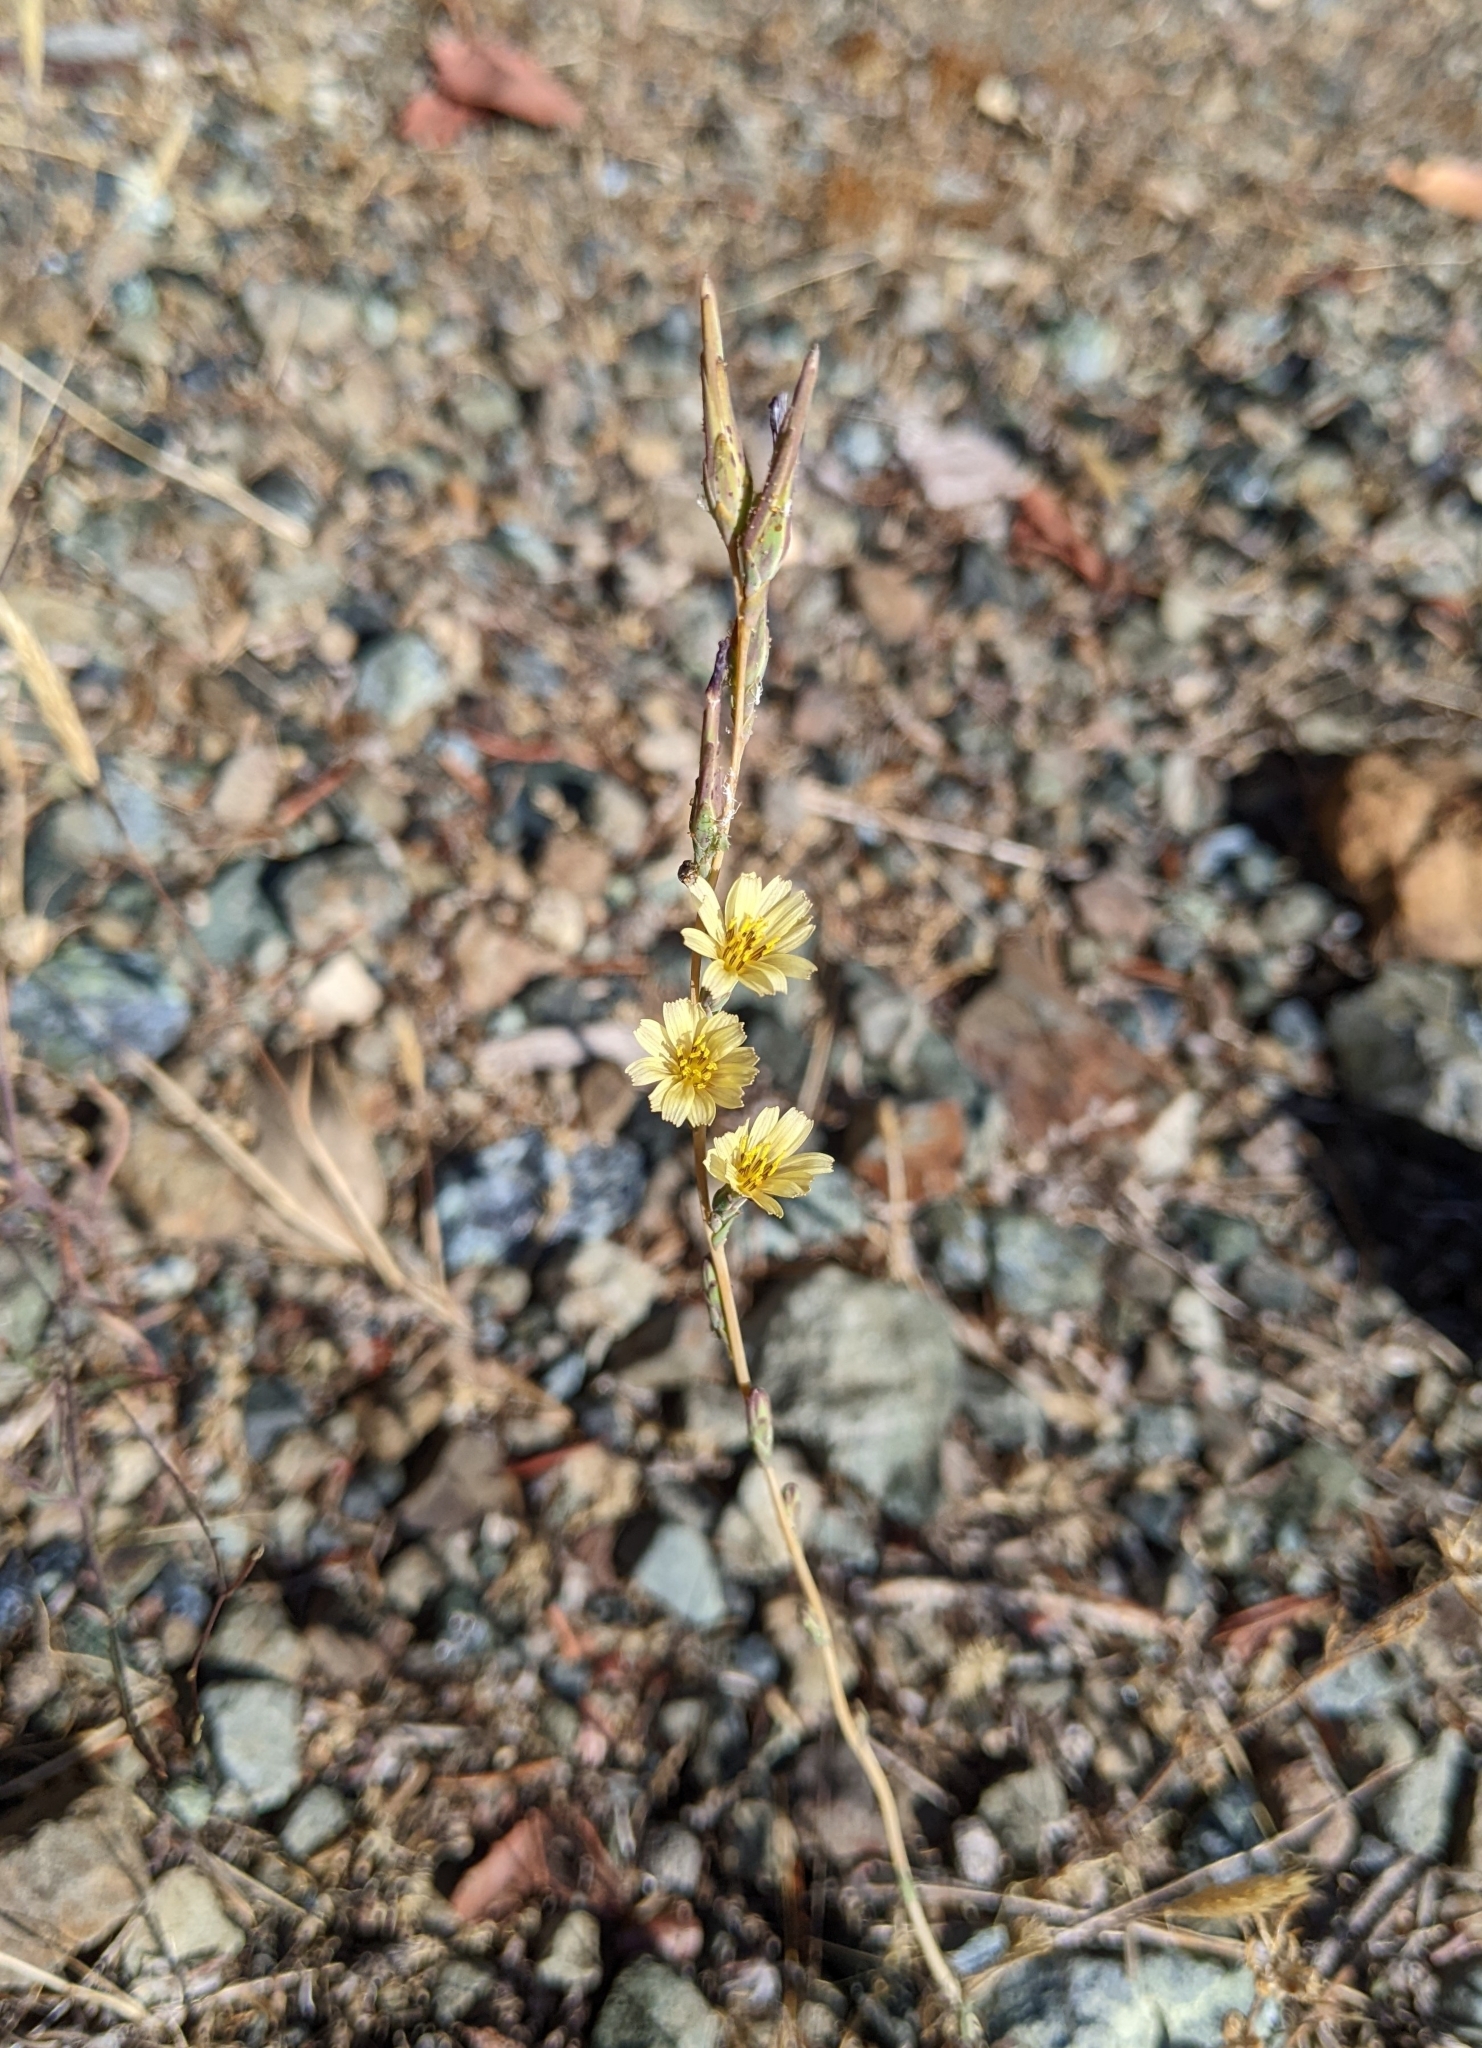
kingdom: Plantae
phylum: Tracheophyta
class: Magnoliopsida
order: Asterales
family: Asteraceae
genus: Lactuca
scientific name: Lactuca saligna
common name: Wild lettuce
